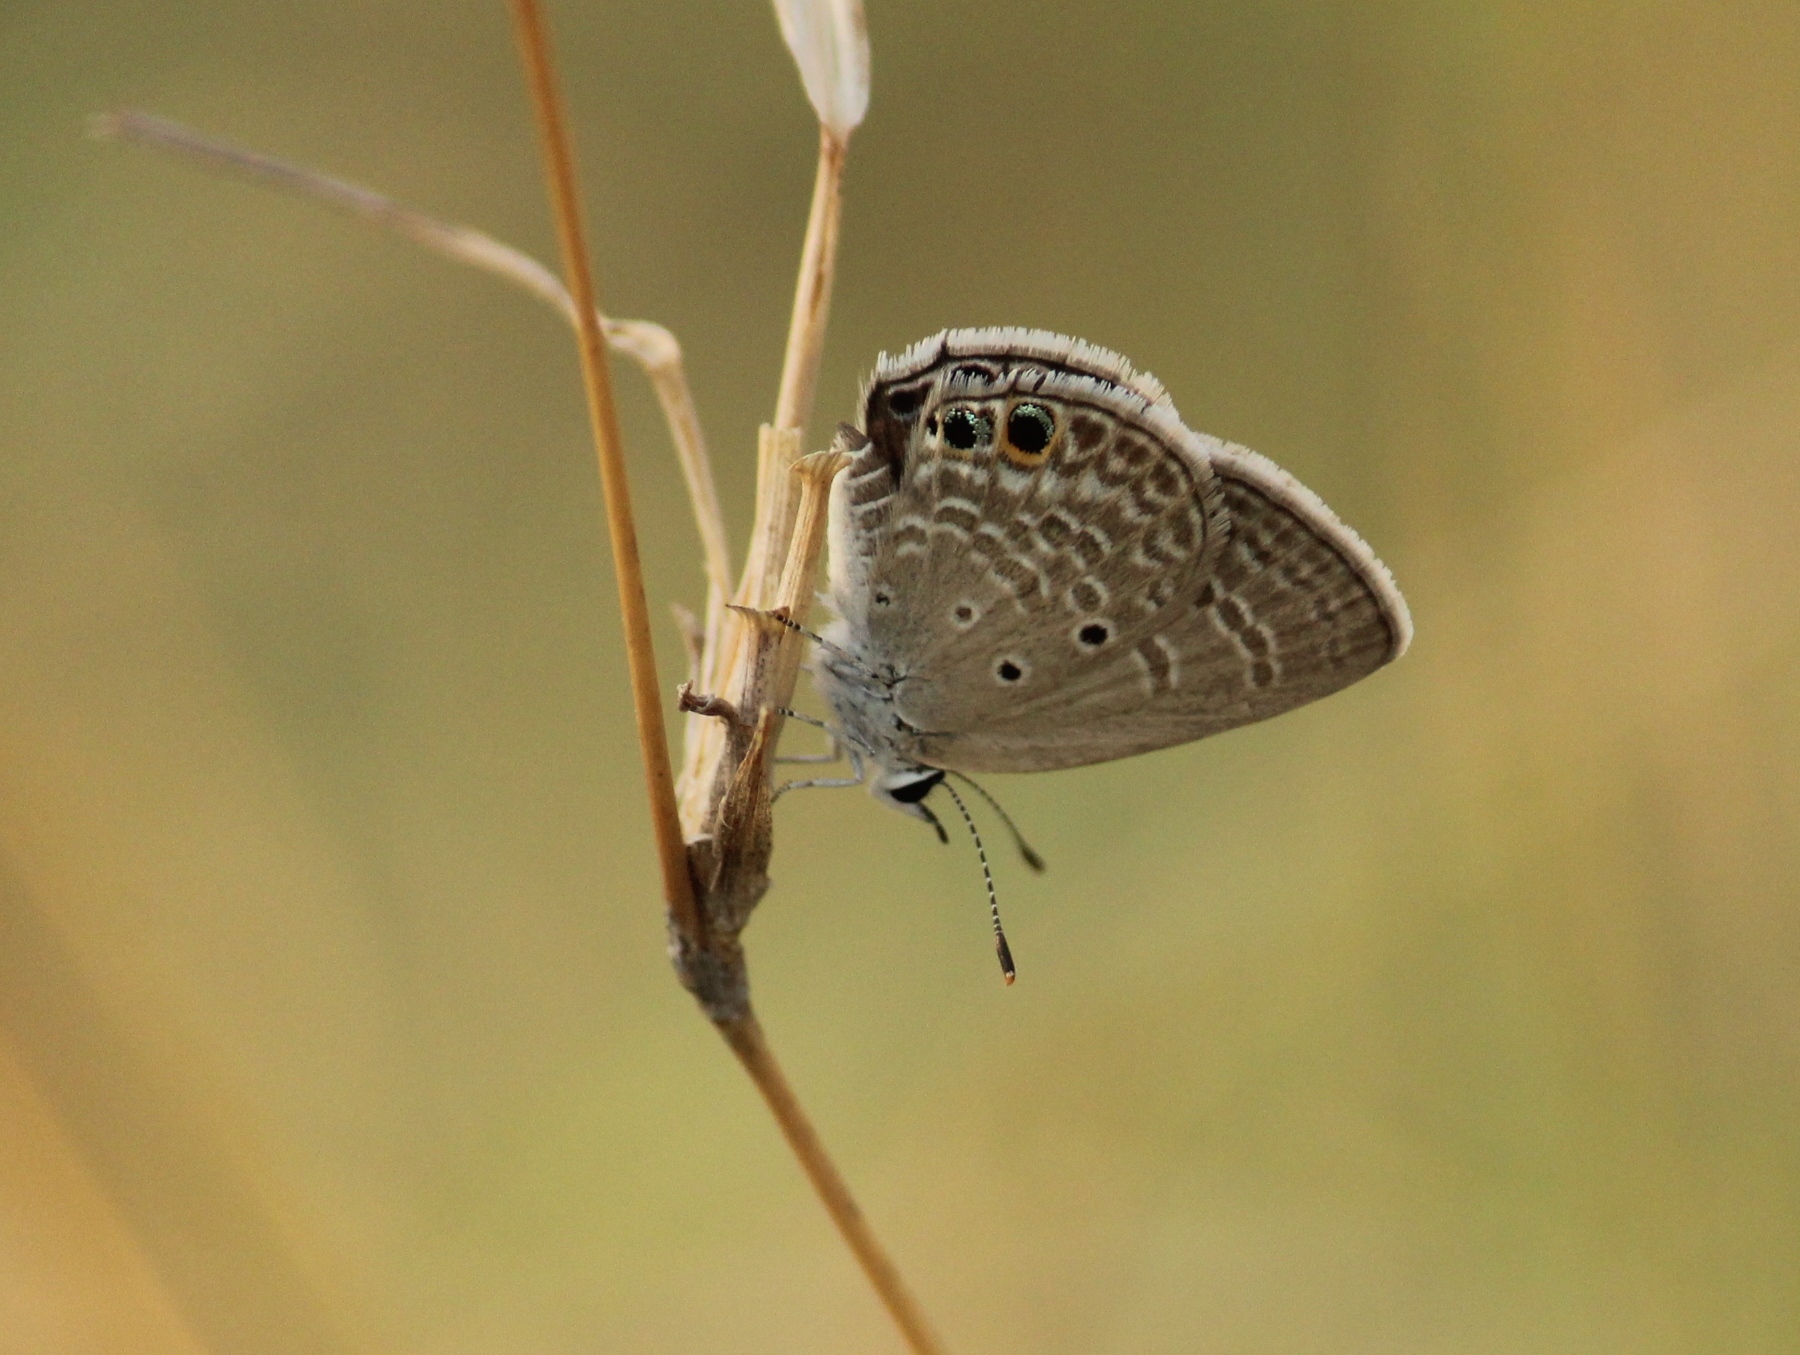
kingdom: Animalia
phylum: Arthropoda
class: Insecta
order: Lepidoptera
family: Lycaenidae
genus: Chilades
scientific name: Chilades parrhasius
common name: Small cupid
